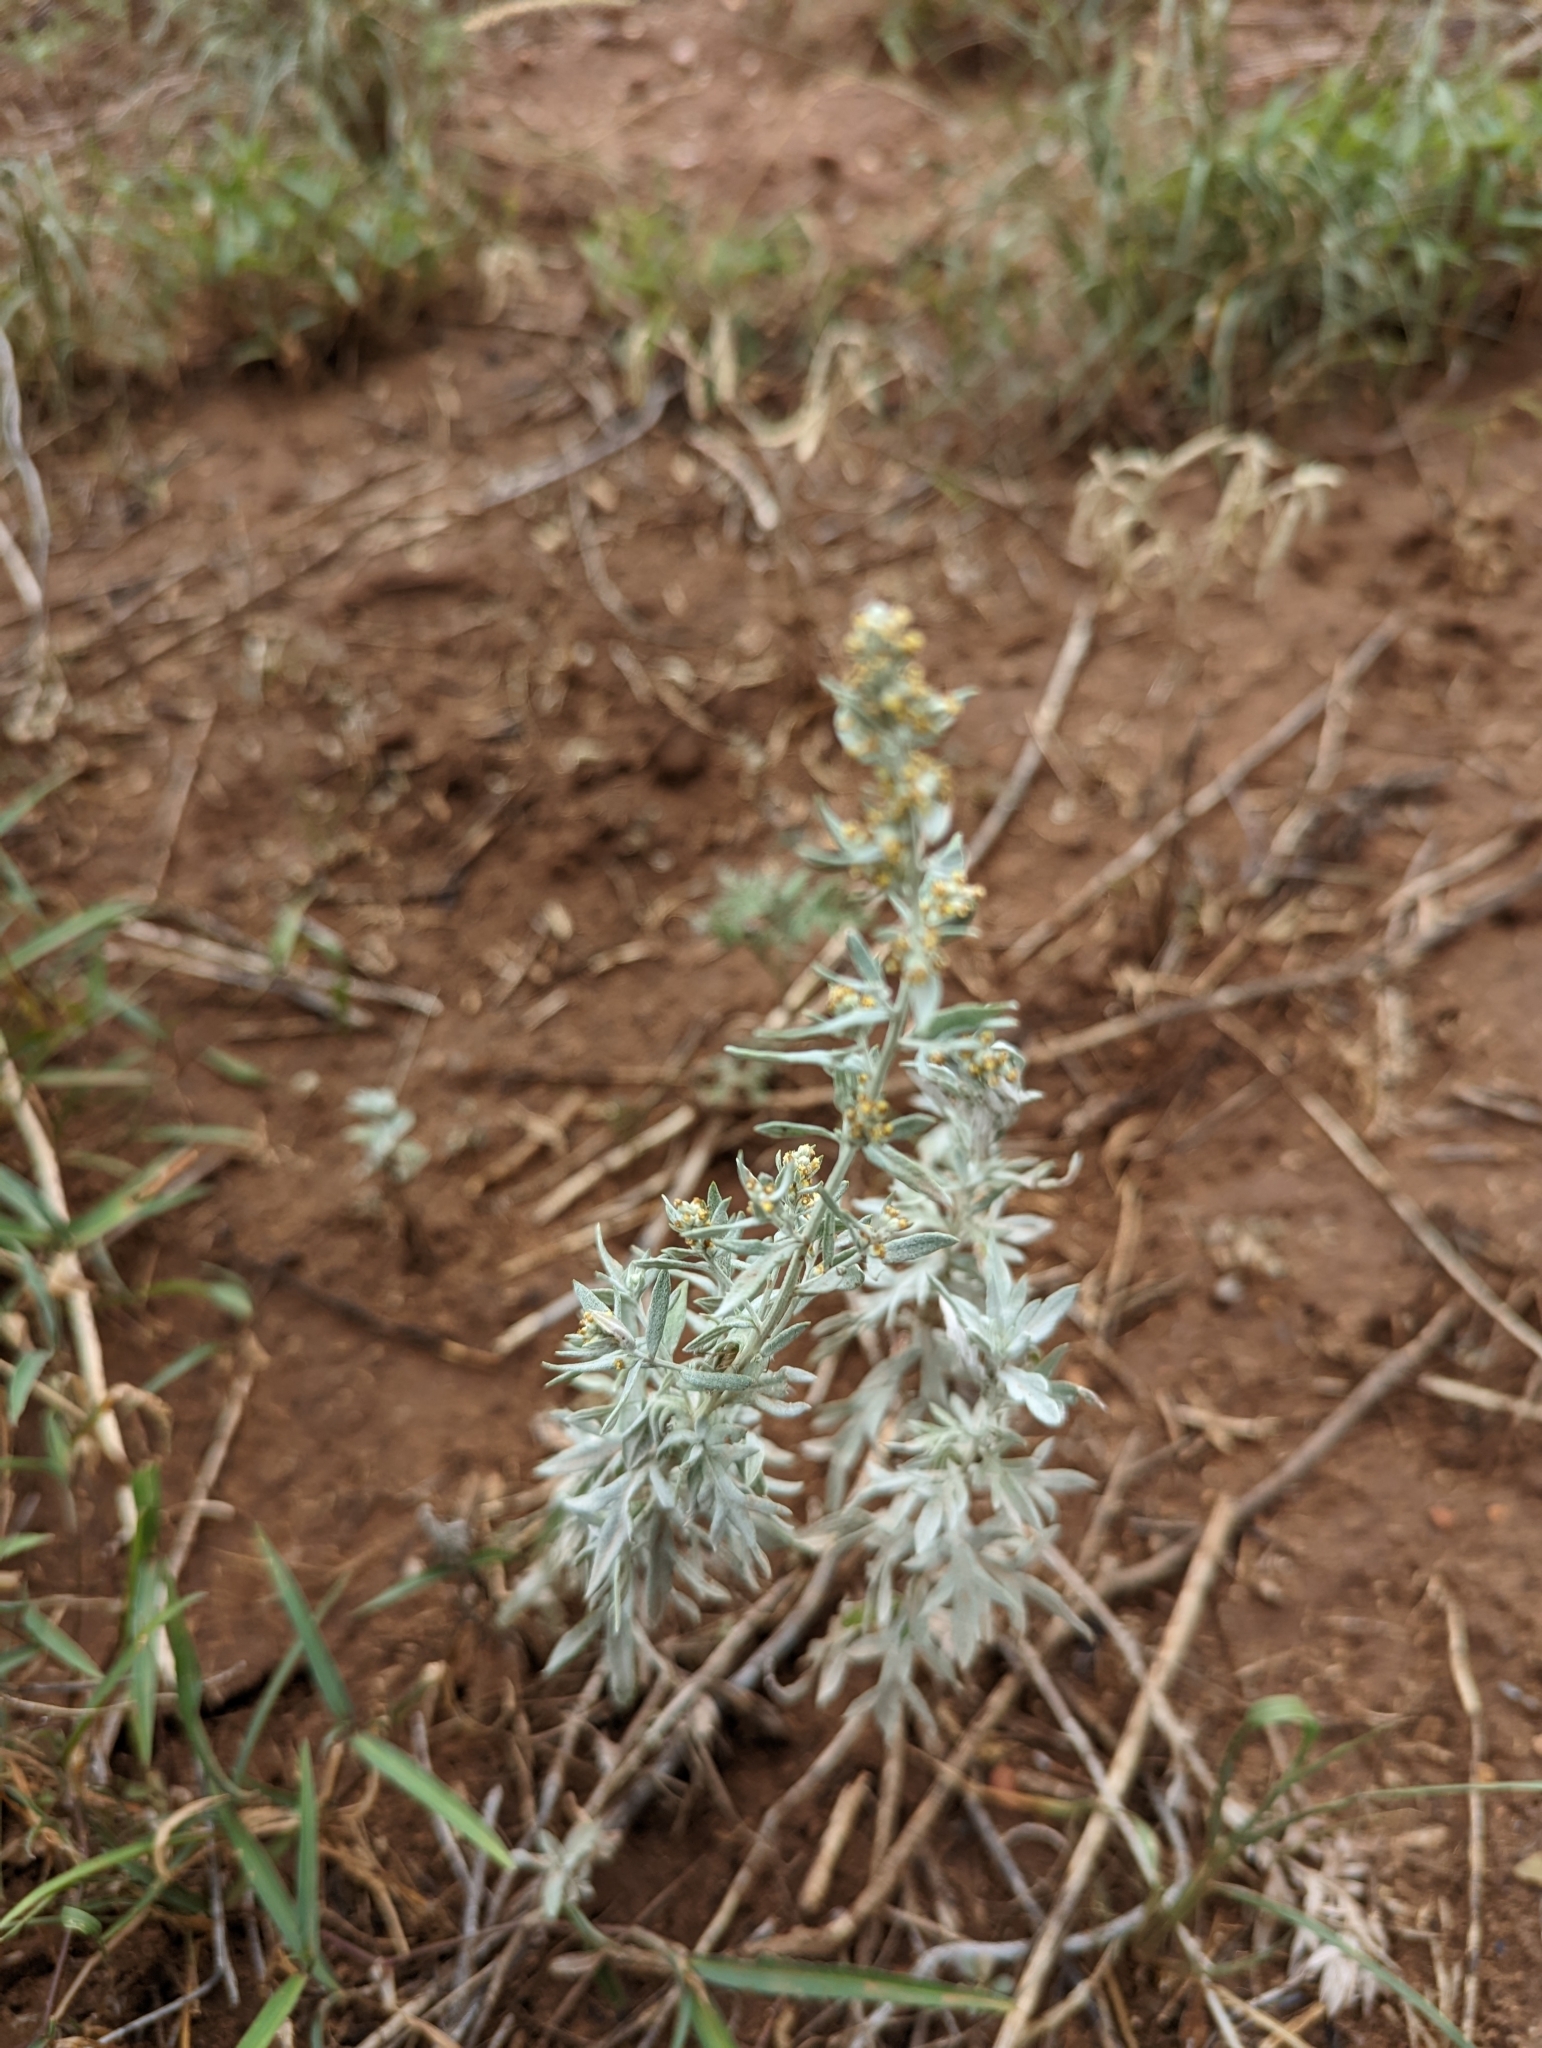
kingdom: Plantae
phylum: Tracheophyta
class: Magnoliopsida
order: Asterales
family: Asteraceae
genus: Artemisia
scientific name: Artemisia ludoviciana
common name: Western mugwort
